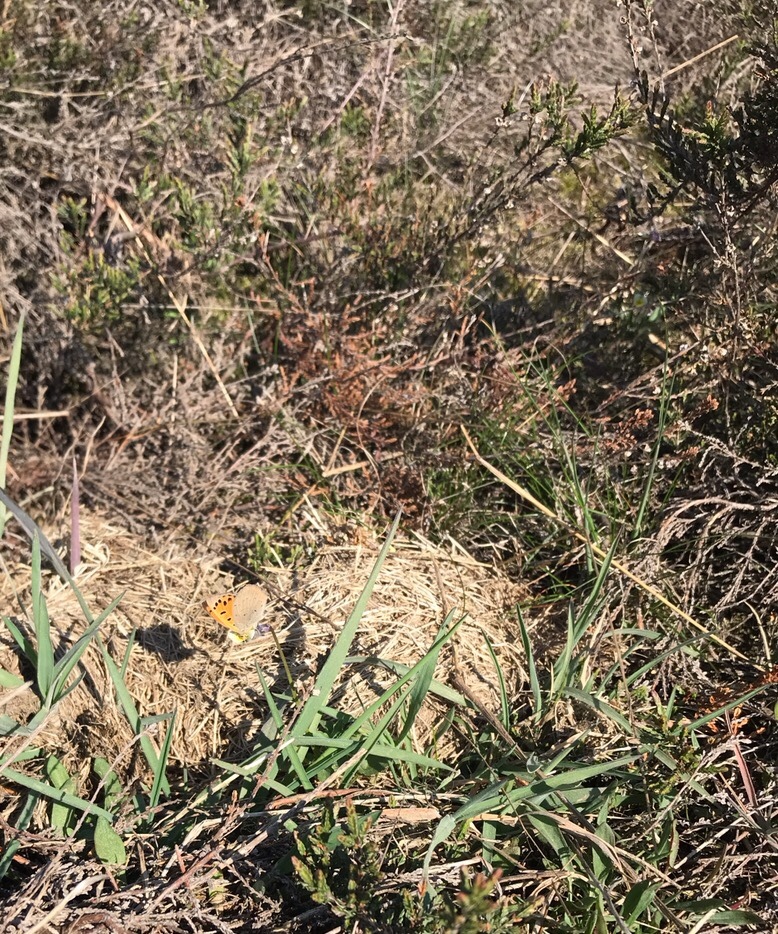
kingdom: Animalia
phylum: Arthropoda
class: Insecta
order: Lepidoptera
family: Lycaenidae
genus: Lycaena
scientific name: Lycaena phlaeas
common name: Small copper
